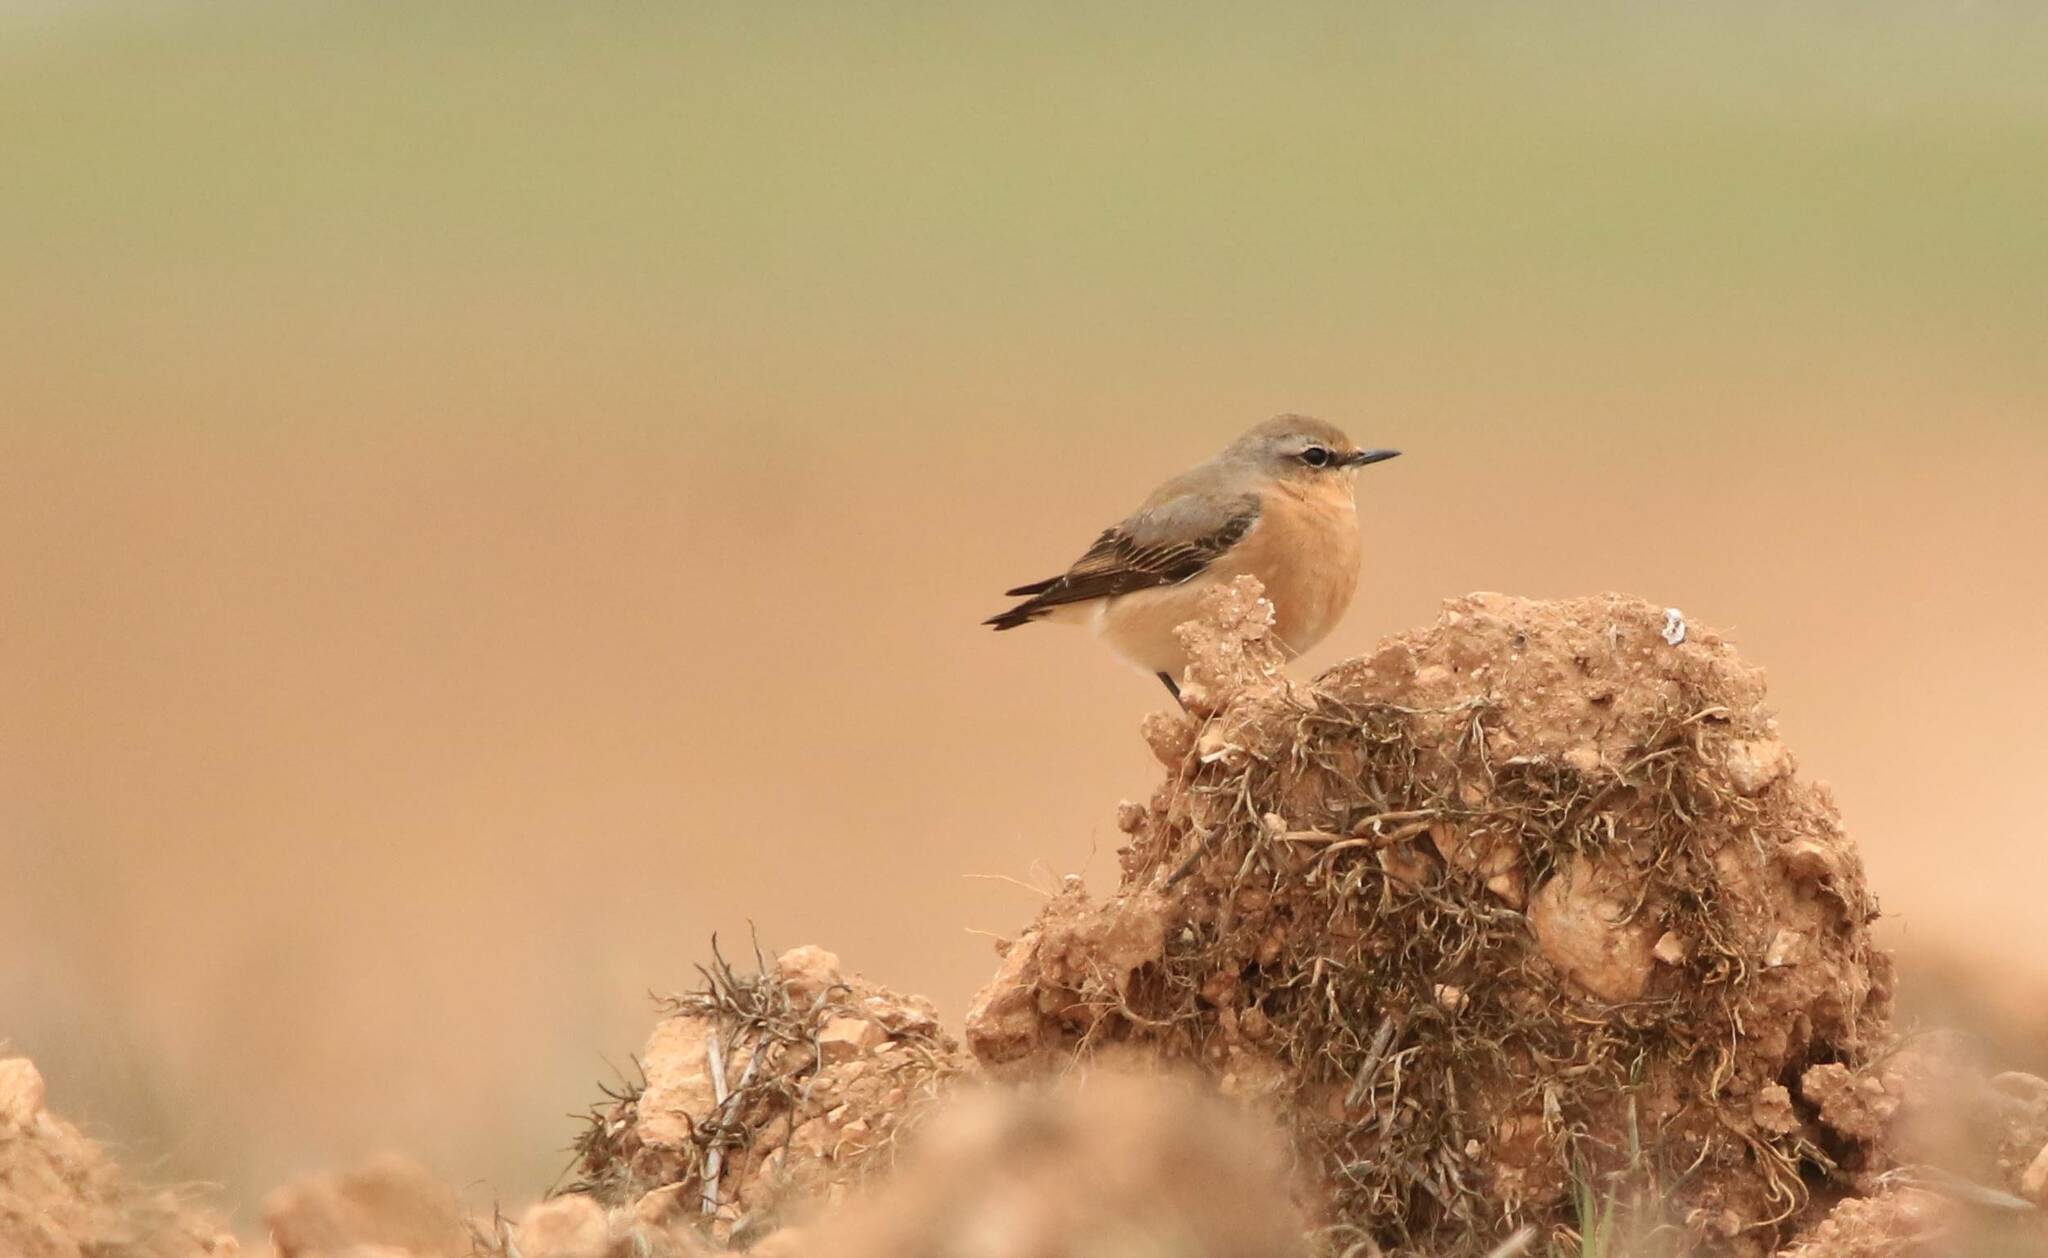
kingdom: Animalia
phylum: Chordata
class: Aves
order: Passeriformes
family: Muscicapidae
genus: Oenanthe
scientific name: Oenanthe oenanthe
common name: Northern wheatear
